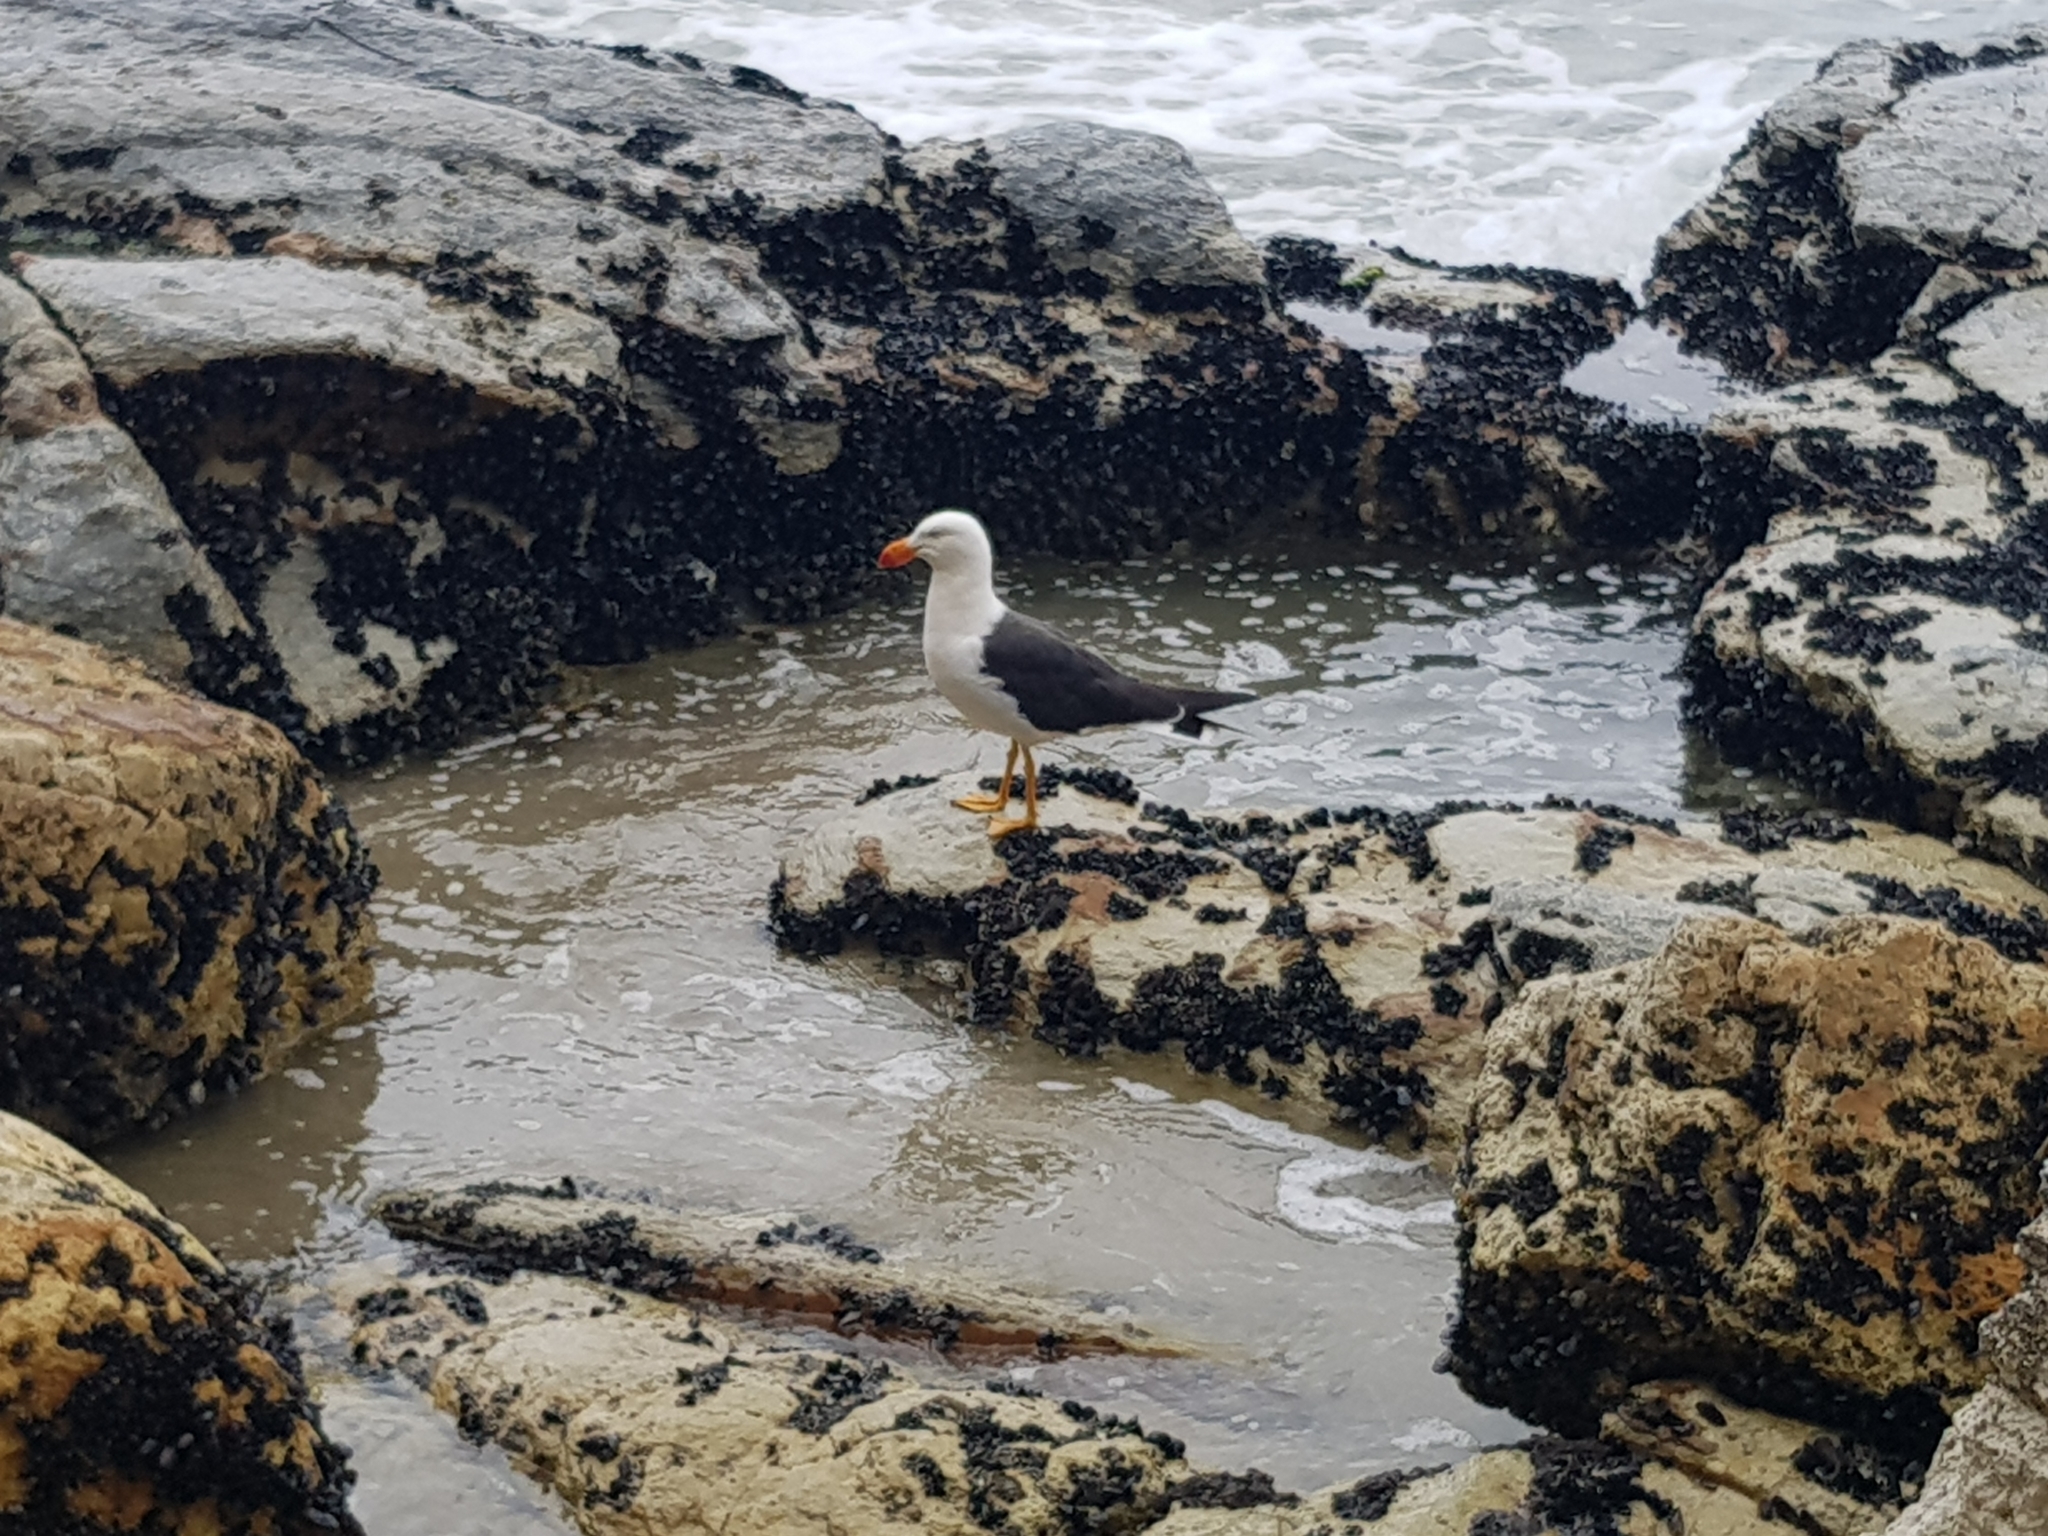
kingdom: Animalia
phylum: Chordata
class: Aves
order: Charadriiformes
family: Laridae
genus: Larus
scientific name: Larus pacificus
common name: Pacific gull
